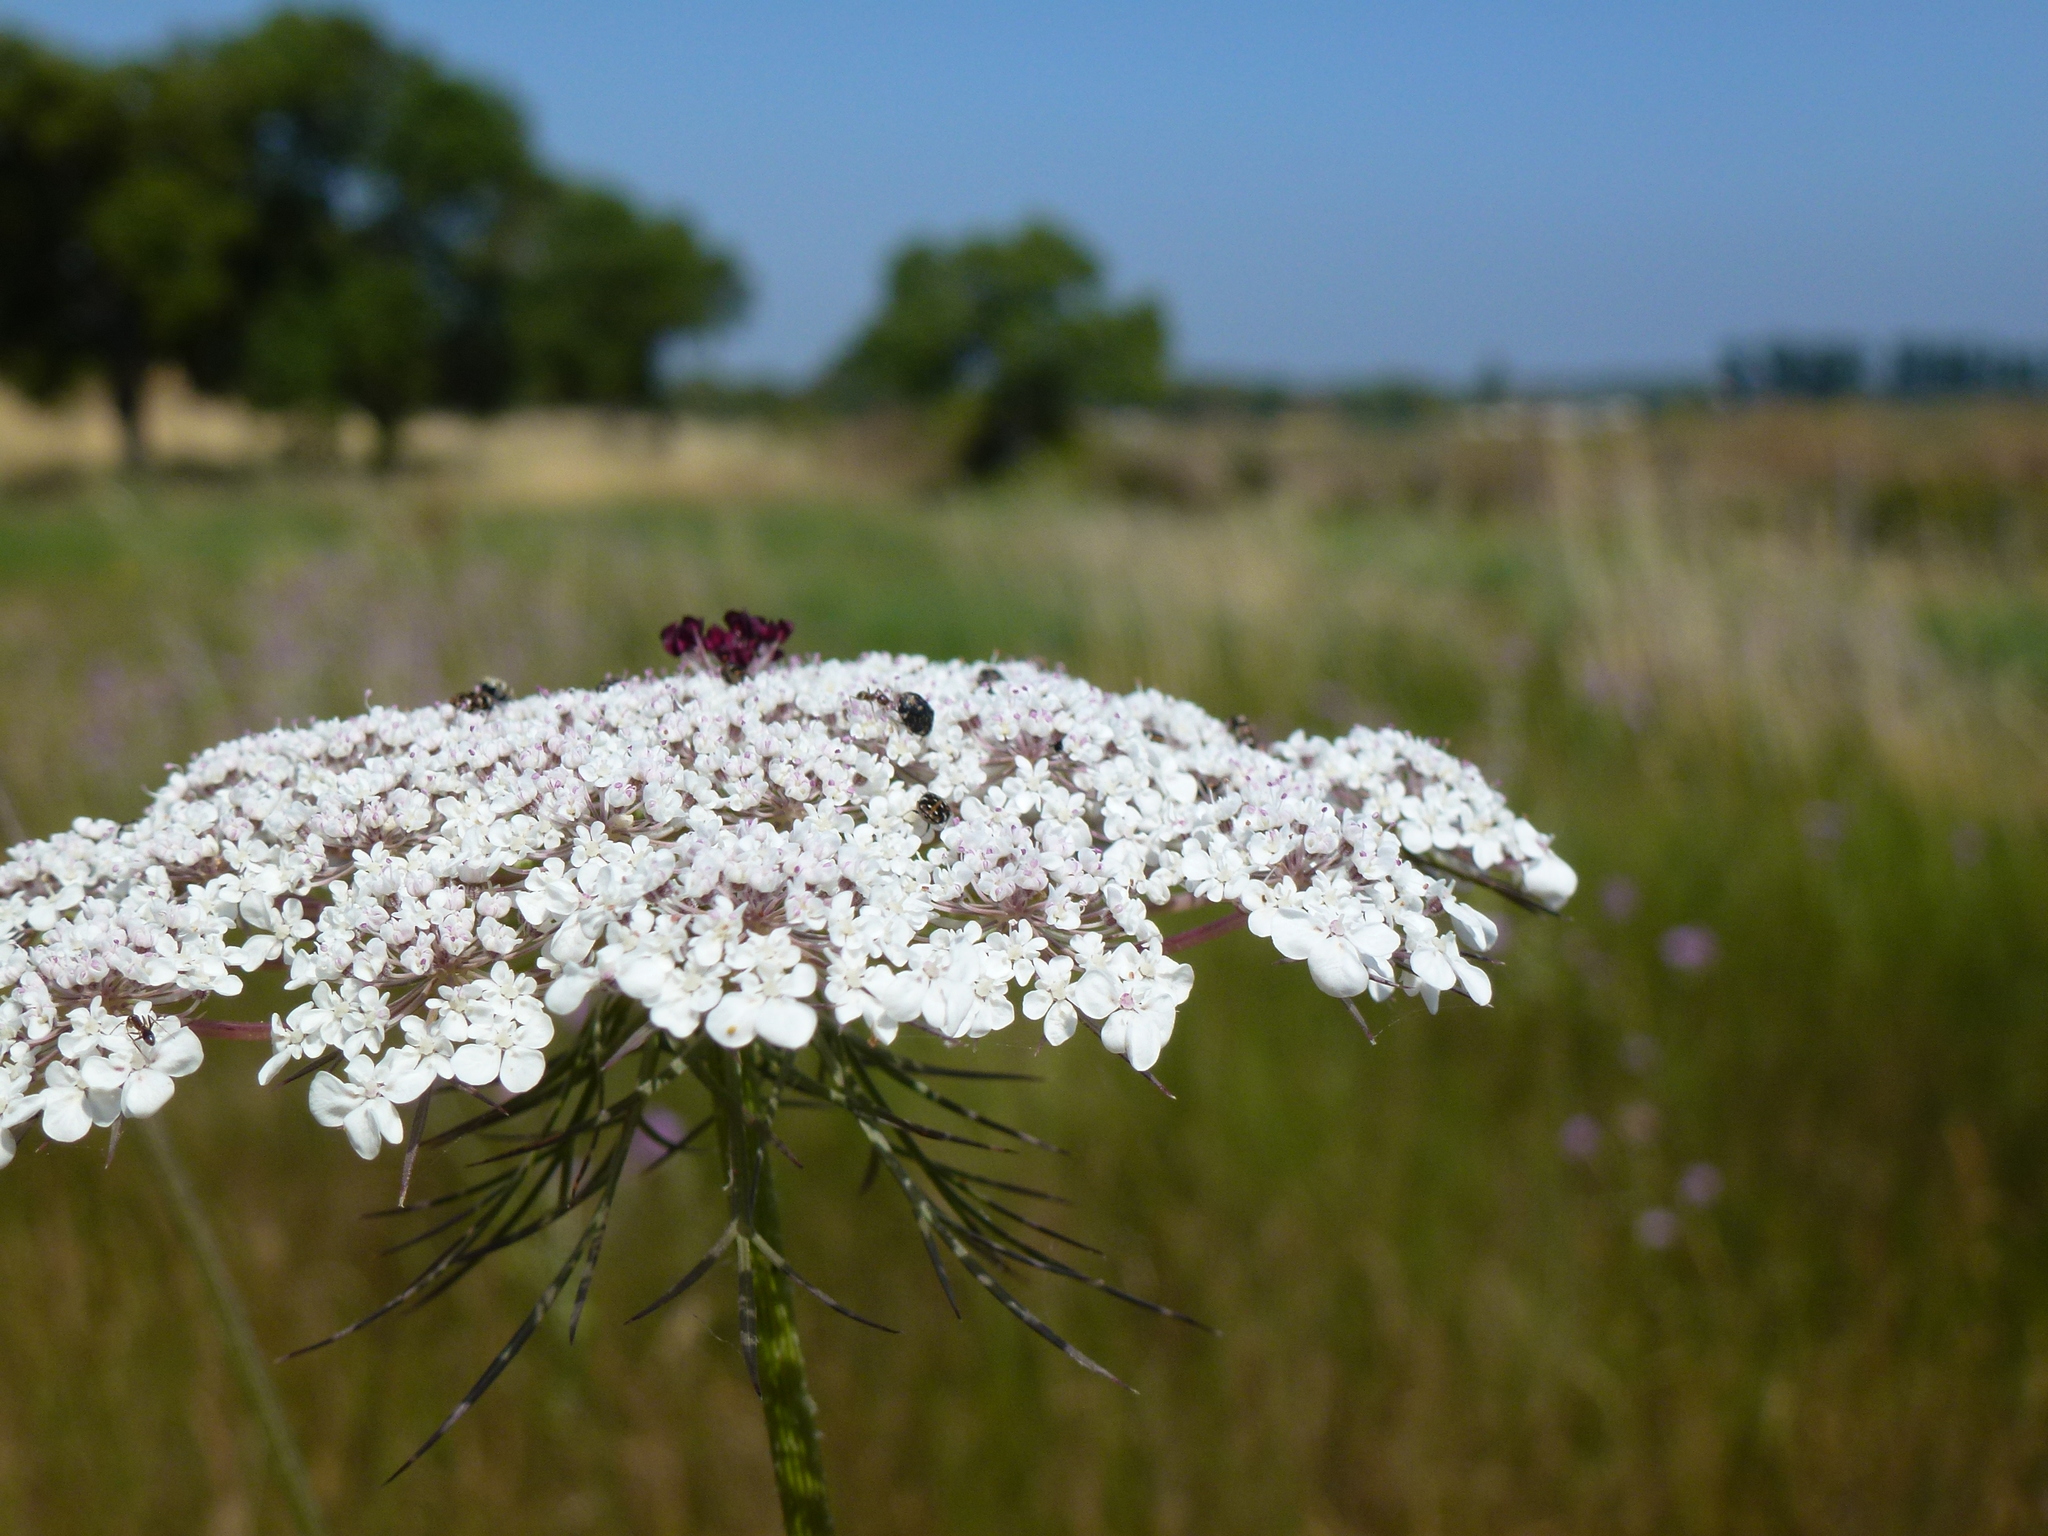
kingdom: Plantae
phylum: Tracheophyta
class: Magnoliopsida
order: Apiales
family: Apiaceae
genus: Daucus
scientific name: Daucus carota
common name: Wild carrot
